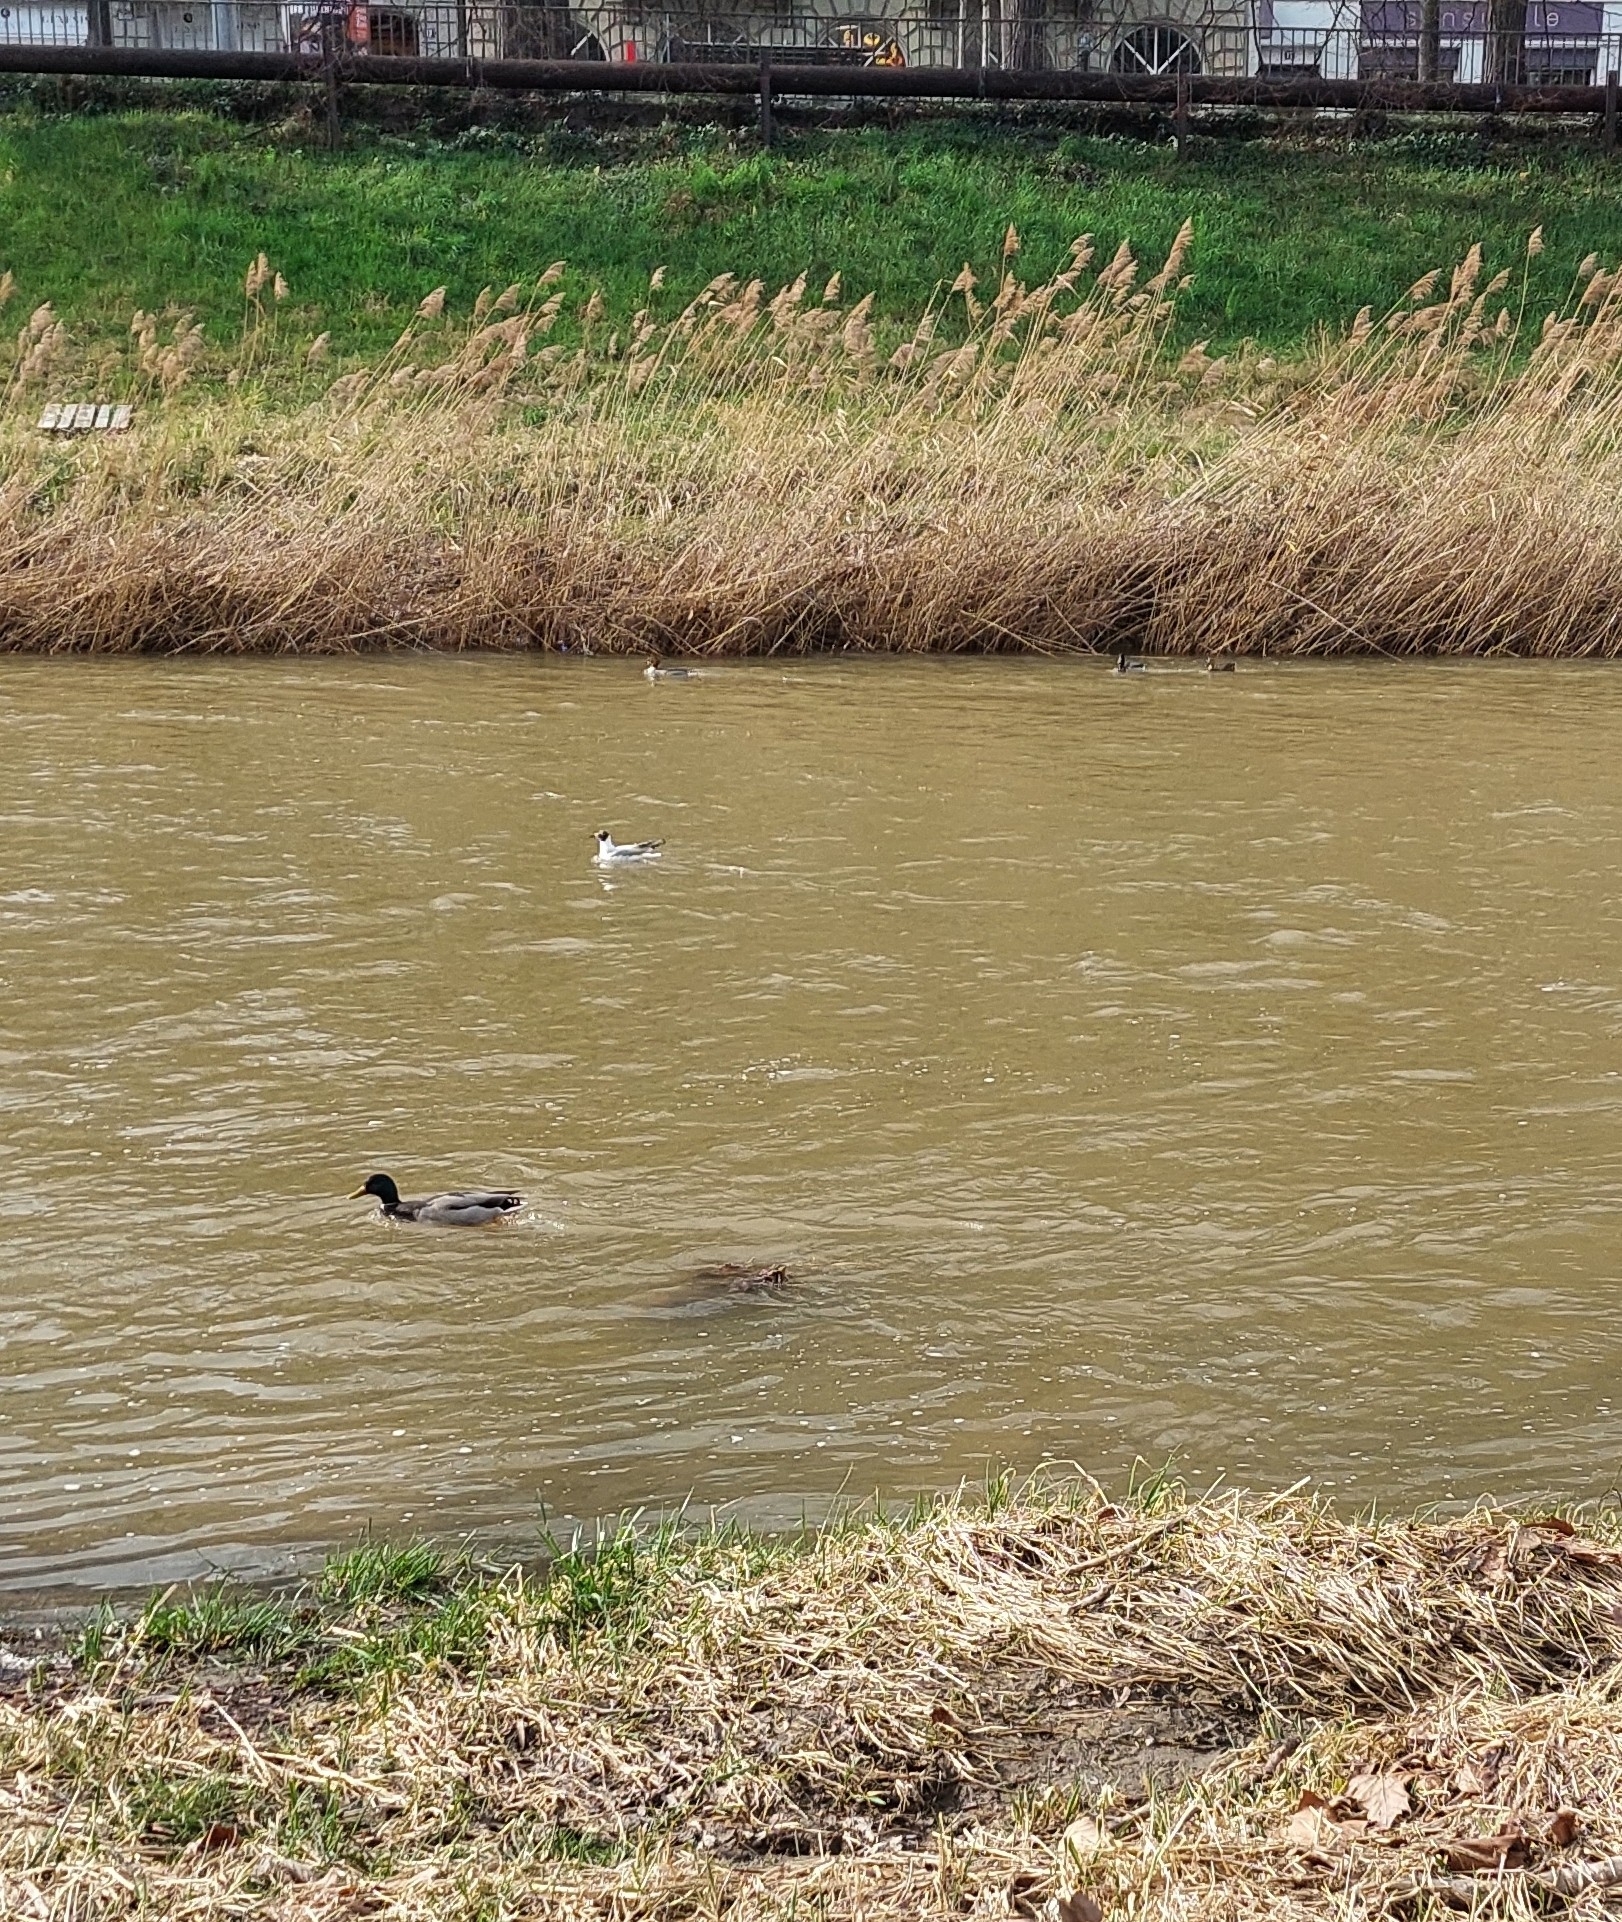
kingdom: Animalia
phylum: Chordata
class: Aves
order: Charadriiformes
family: Laridae
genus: Chroicocephalus
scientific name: Chroicocephalus ridibundus
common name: Black-headed gull
